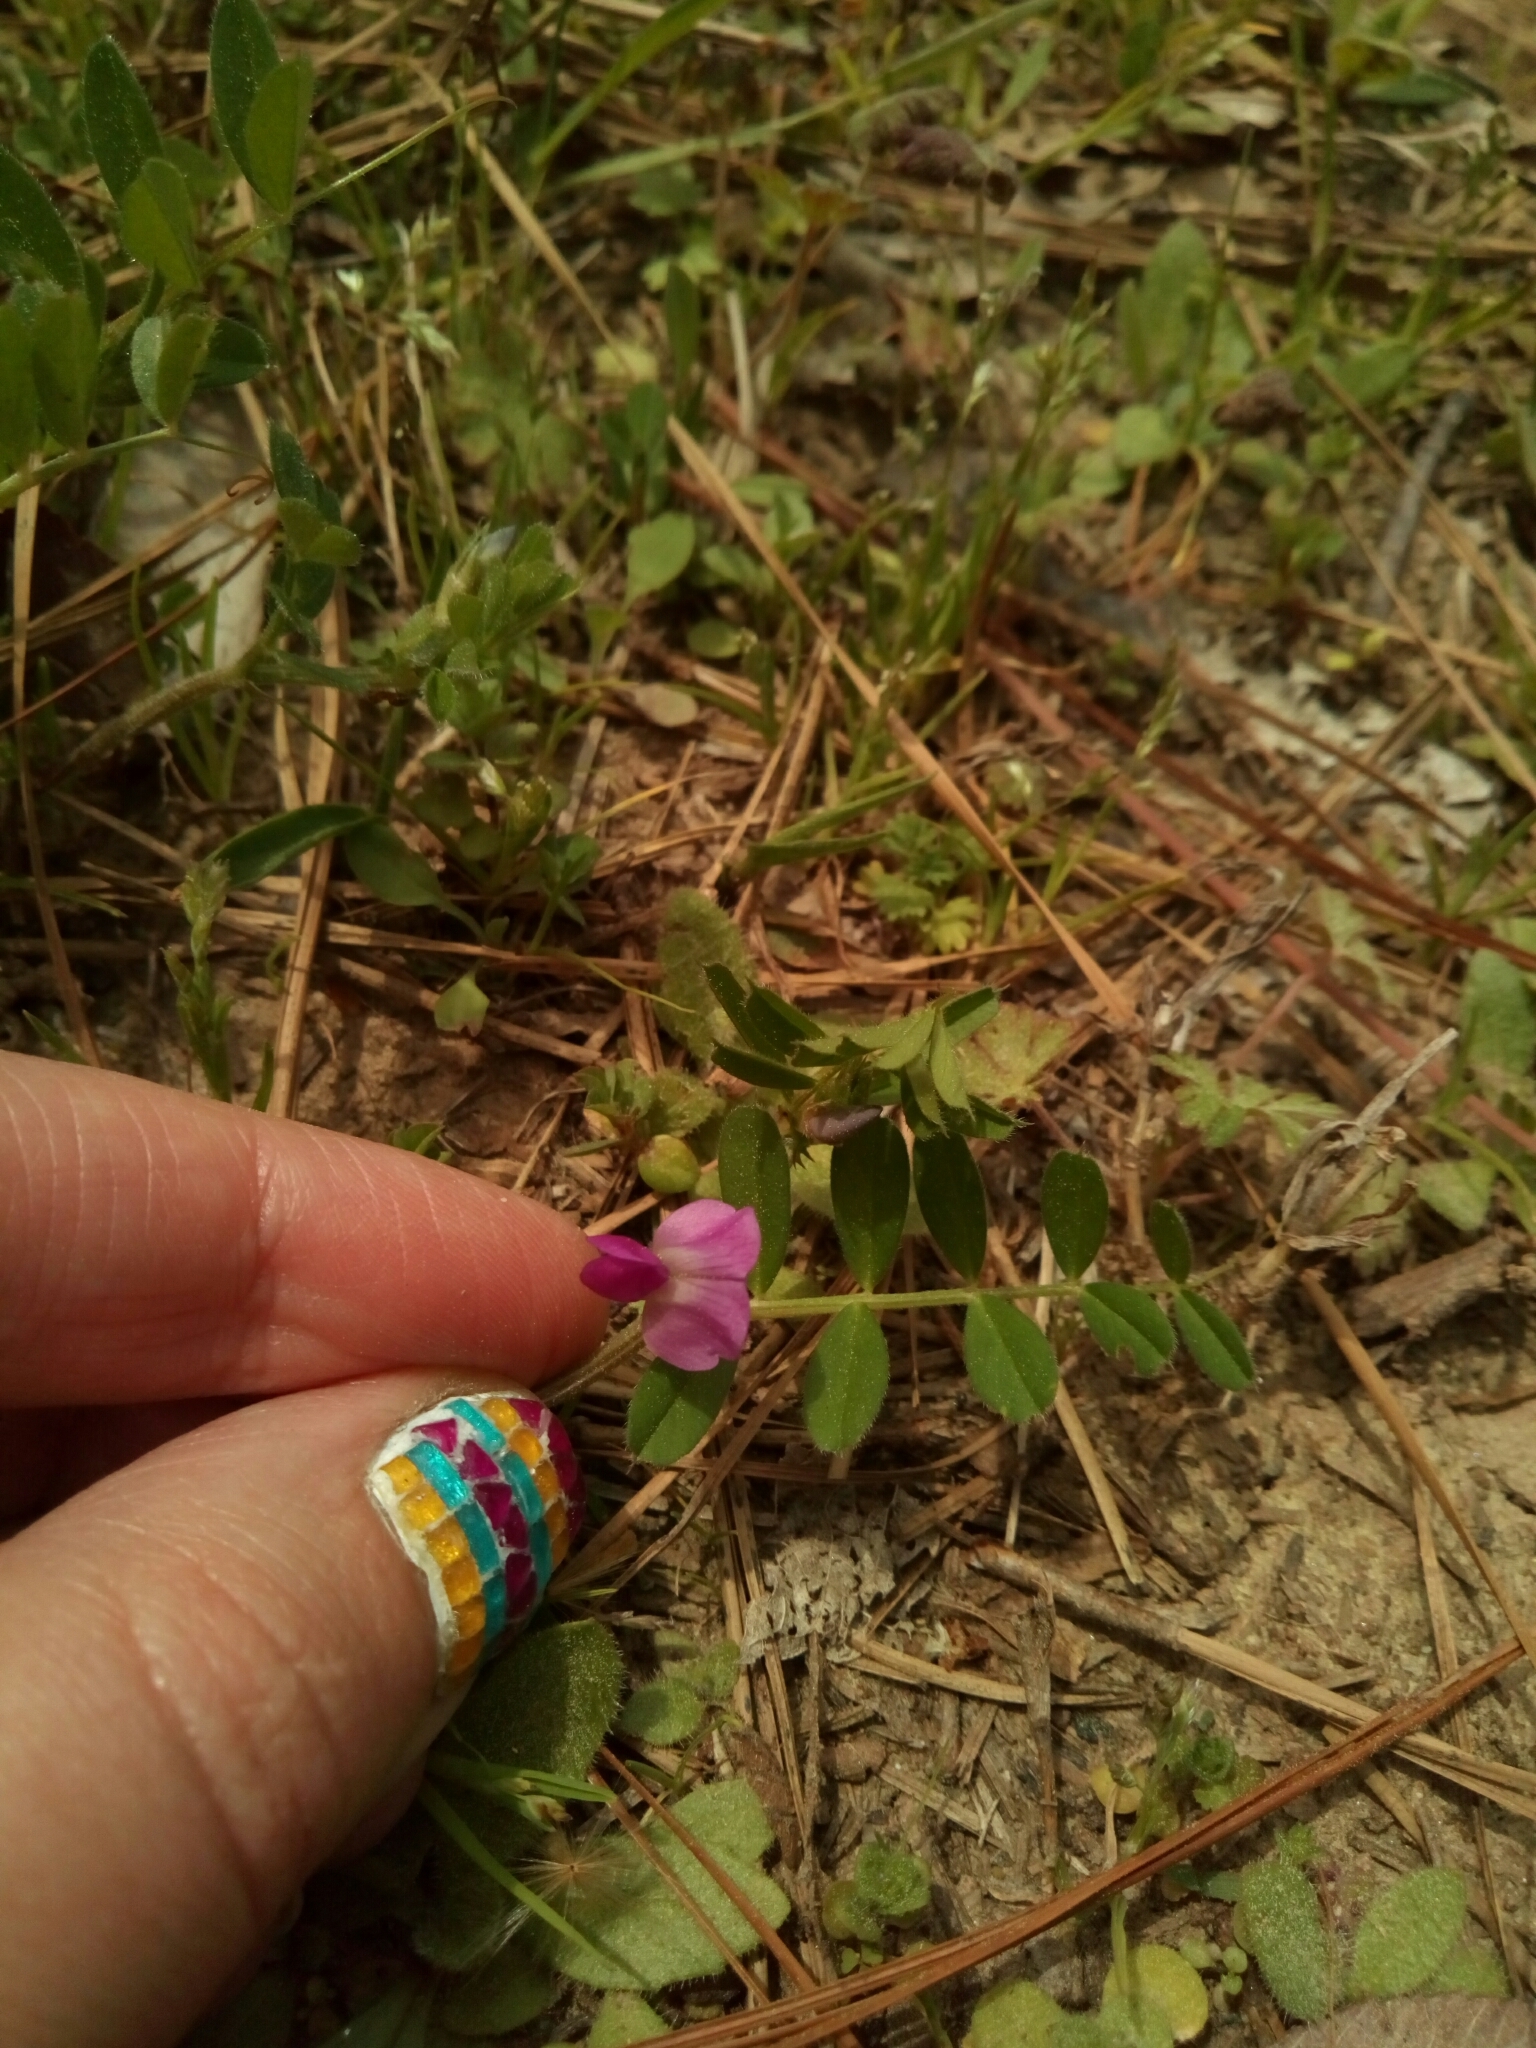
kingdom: Plantae
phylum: Tracheophyta
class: Magnoliopsida
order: Fabales
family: Fabaceae
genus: Vicia
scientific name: Vicia sativa
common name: Garden vetch
